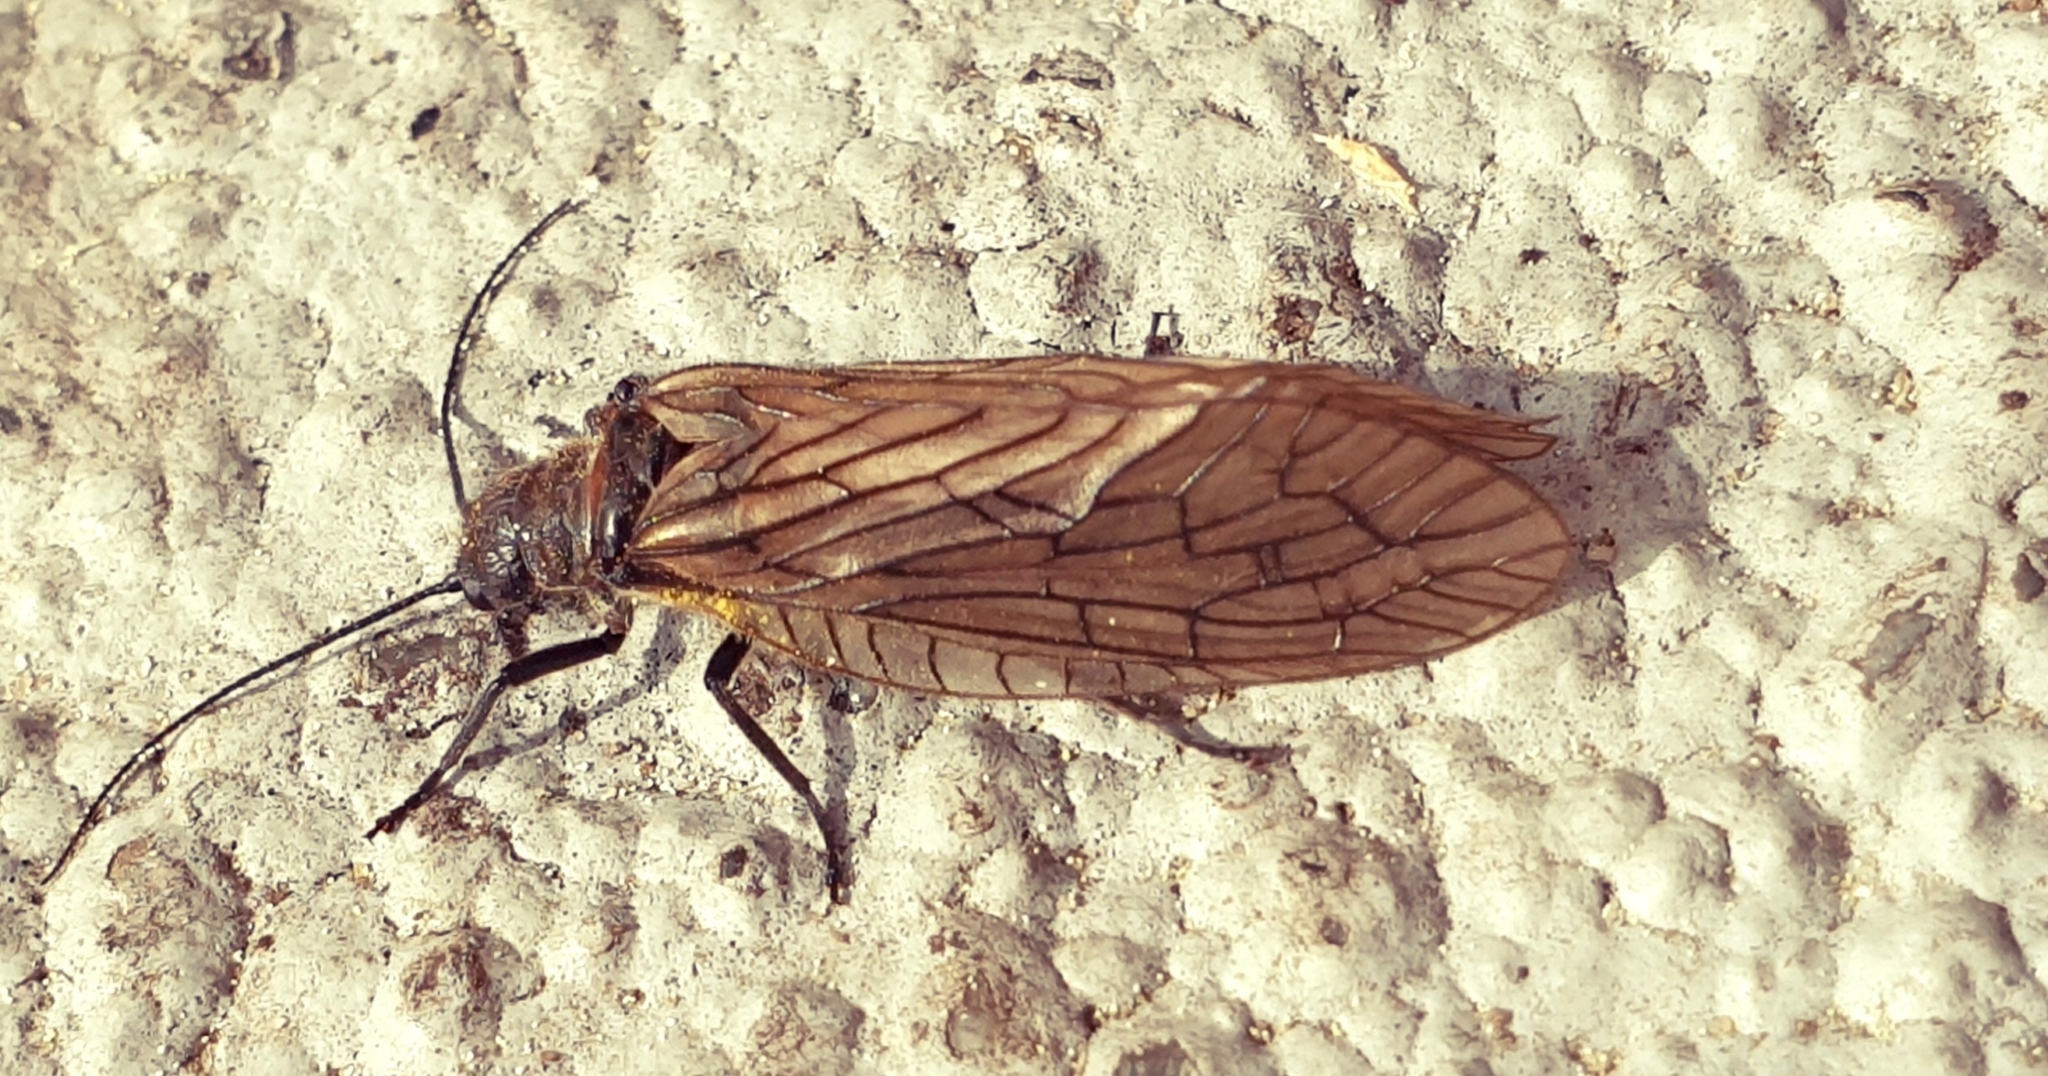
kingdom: Animalia
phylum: Arthropoda
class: Insecta
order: Megaloptera
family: Sialidae
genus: Sialis
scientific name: Sialis
